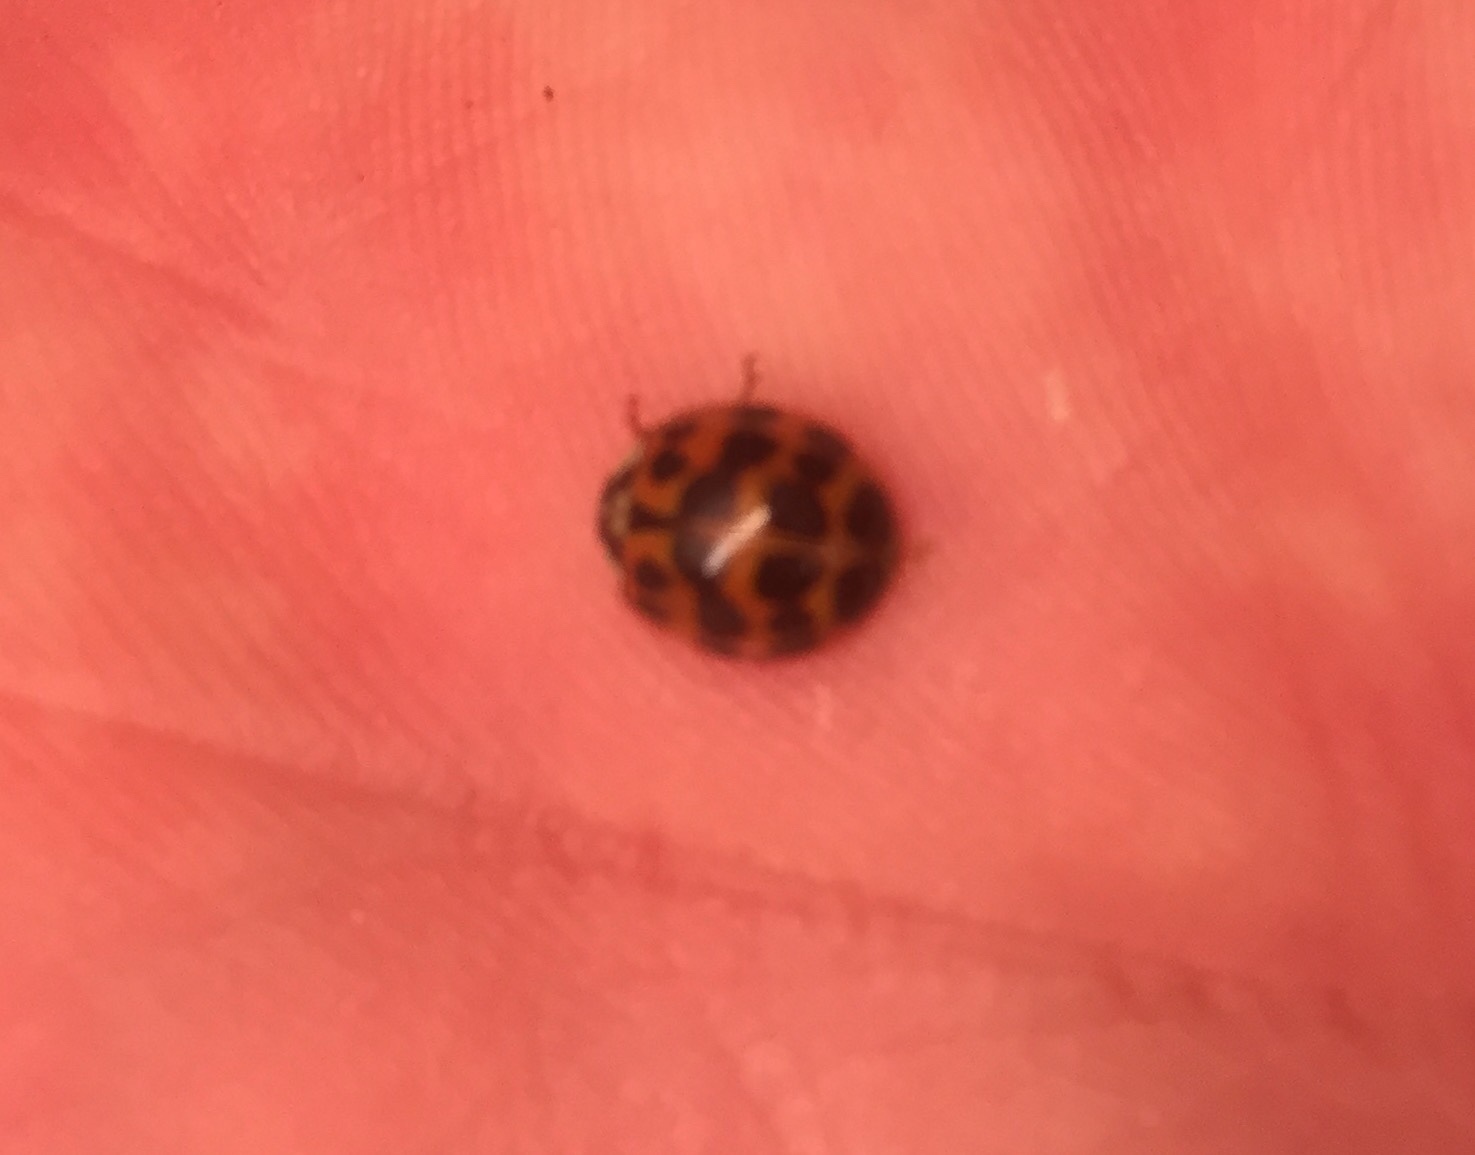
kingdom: Animalia
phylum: Arthropoda
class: Insecta
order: Coleoptera
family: Coccinellidae
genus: Harmonia
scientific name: Harmonia axyridis
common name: Harlequin ladybird
